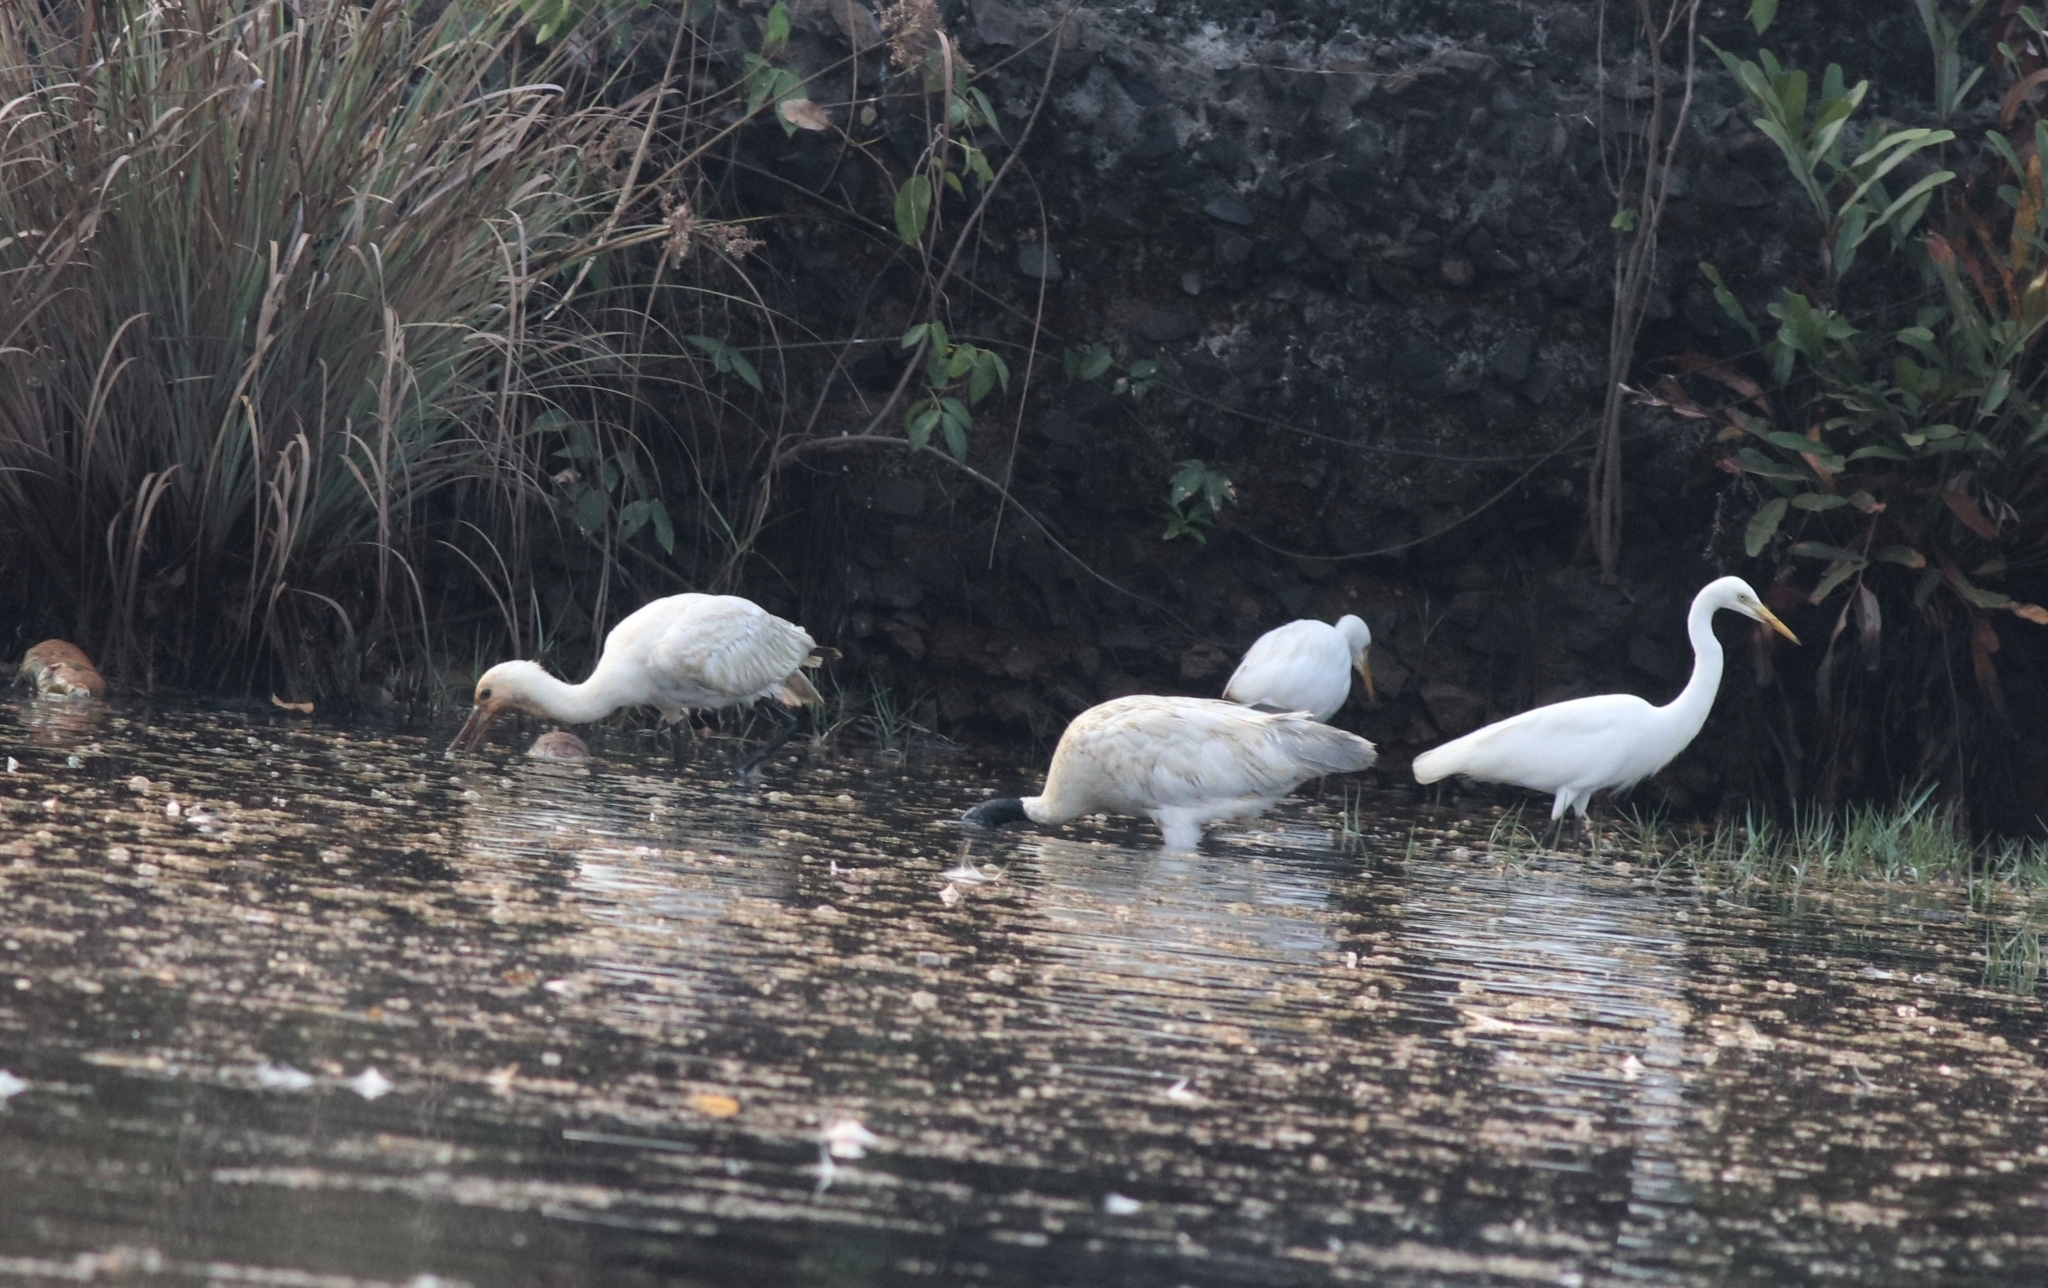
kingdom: Animalia
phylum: Chordata
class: Aves
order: Pelecaniformes
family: Threskiornithidae
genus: Threskiornis
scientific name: Threskiornis melanocephalus
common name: Black-headed ibis
